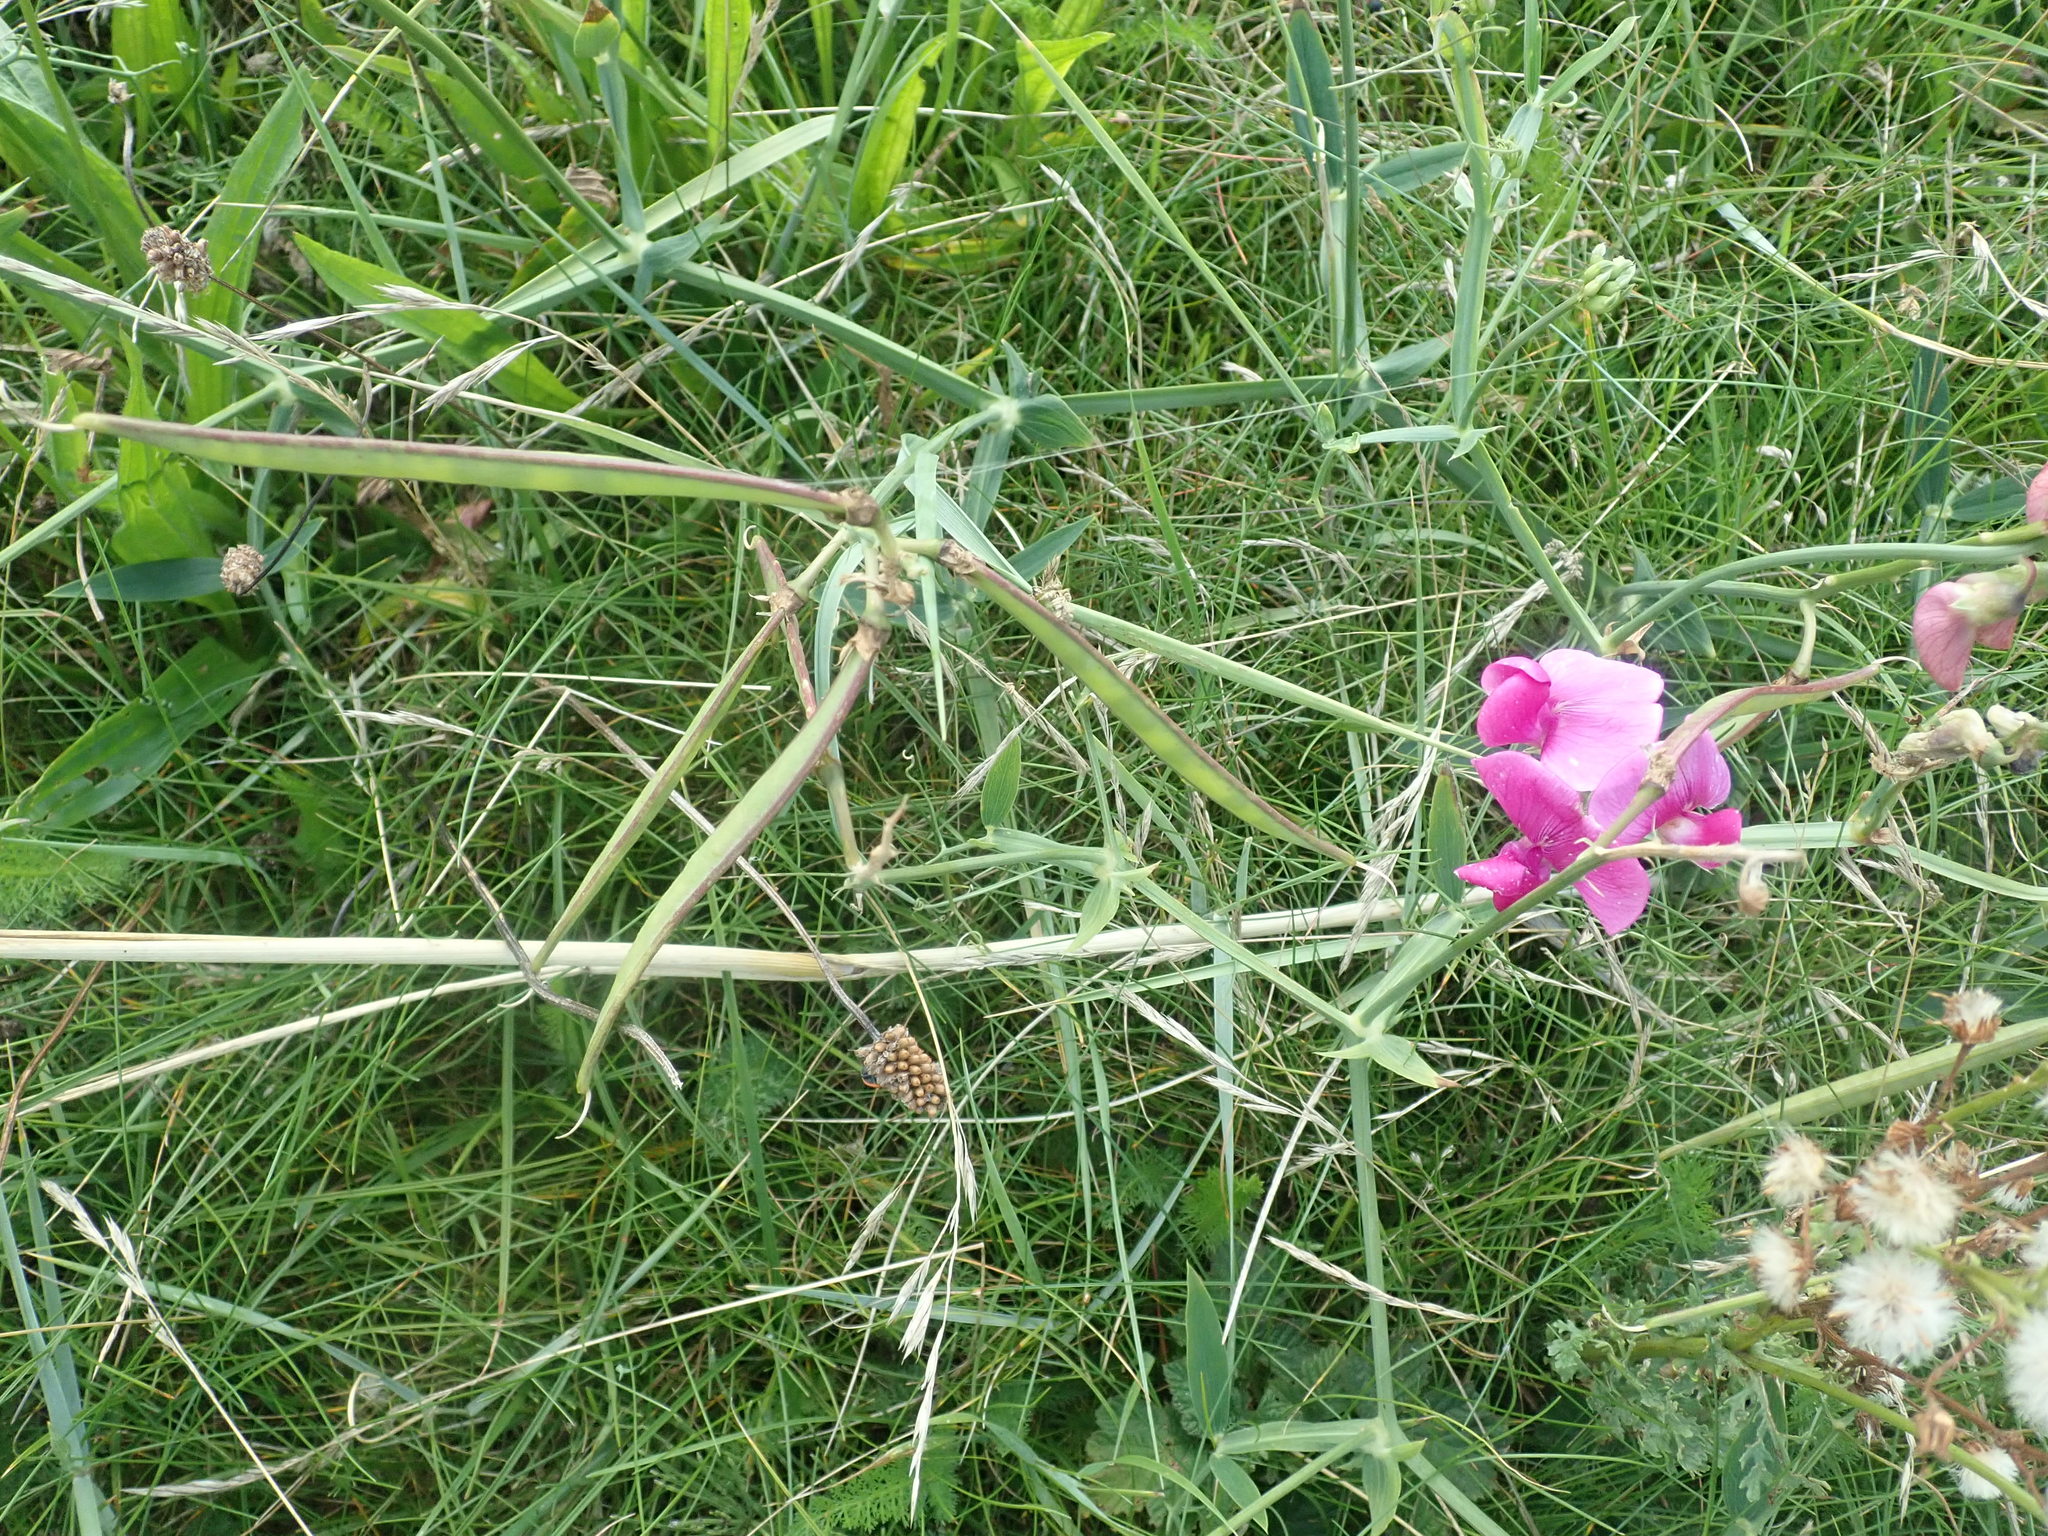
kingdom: Plantae
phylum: Tracheophyta
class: Magnoliopsida
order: Fabales
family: Fabaceae
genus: Lathyrus
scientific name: Lathyrus latifolius
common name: Perennial pea
